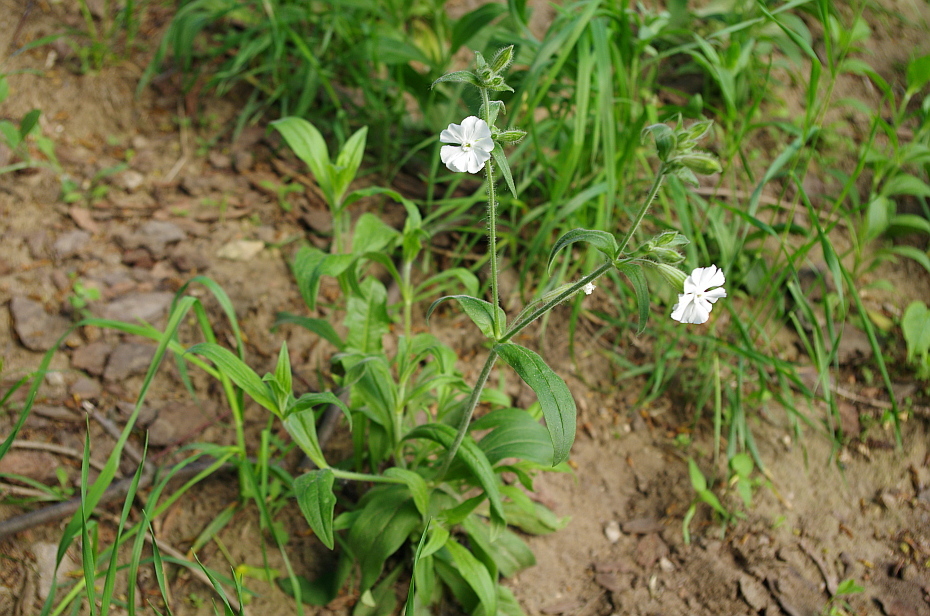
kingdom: Plantae
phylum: Tracheophyta
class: Magnoliopsida
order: Caryophyllales
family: Caryophyllaceae
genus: Silene
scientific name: Silene latifolia
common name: White campion
